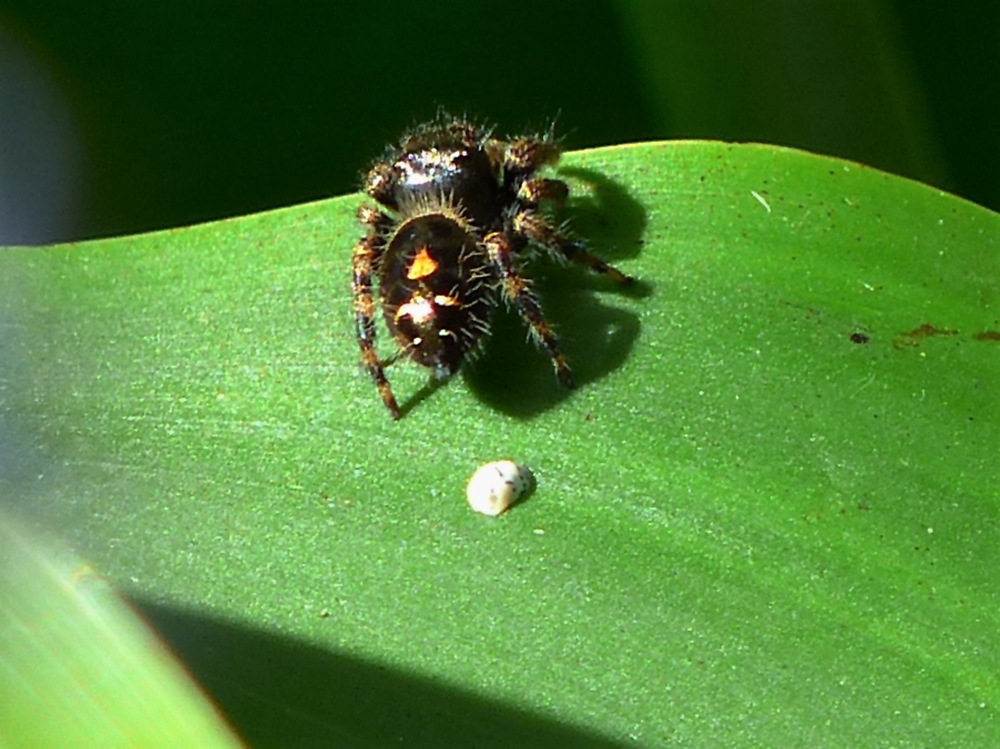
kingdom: Animalia
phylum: Arthropoda
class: Arachnida
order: Araneae
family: Salticidae
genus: Phidippus
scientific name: Phidippus audax
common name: Bold jumper
